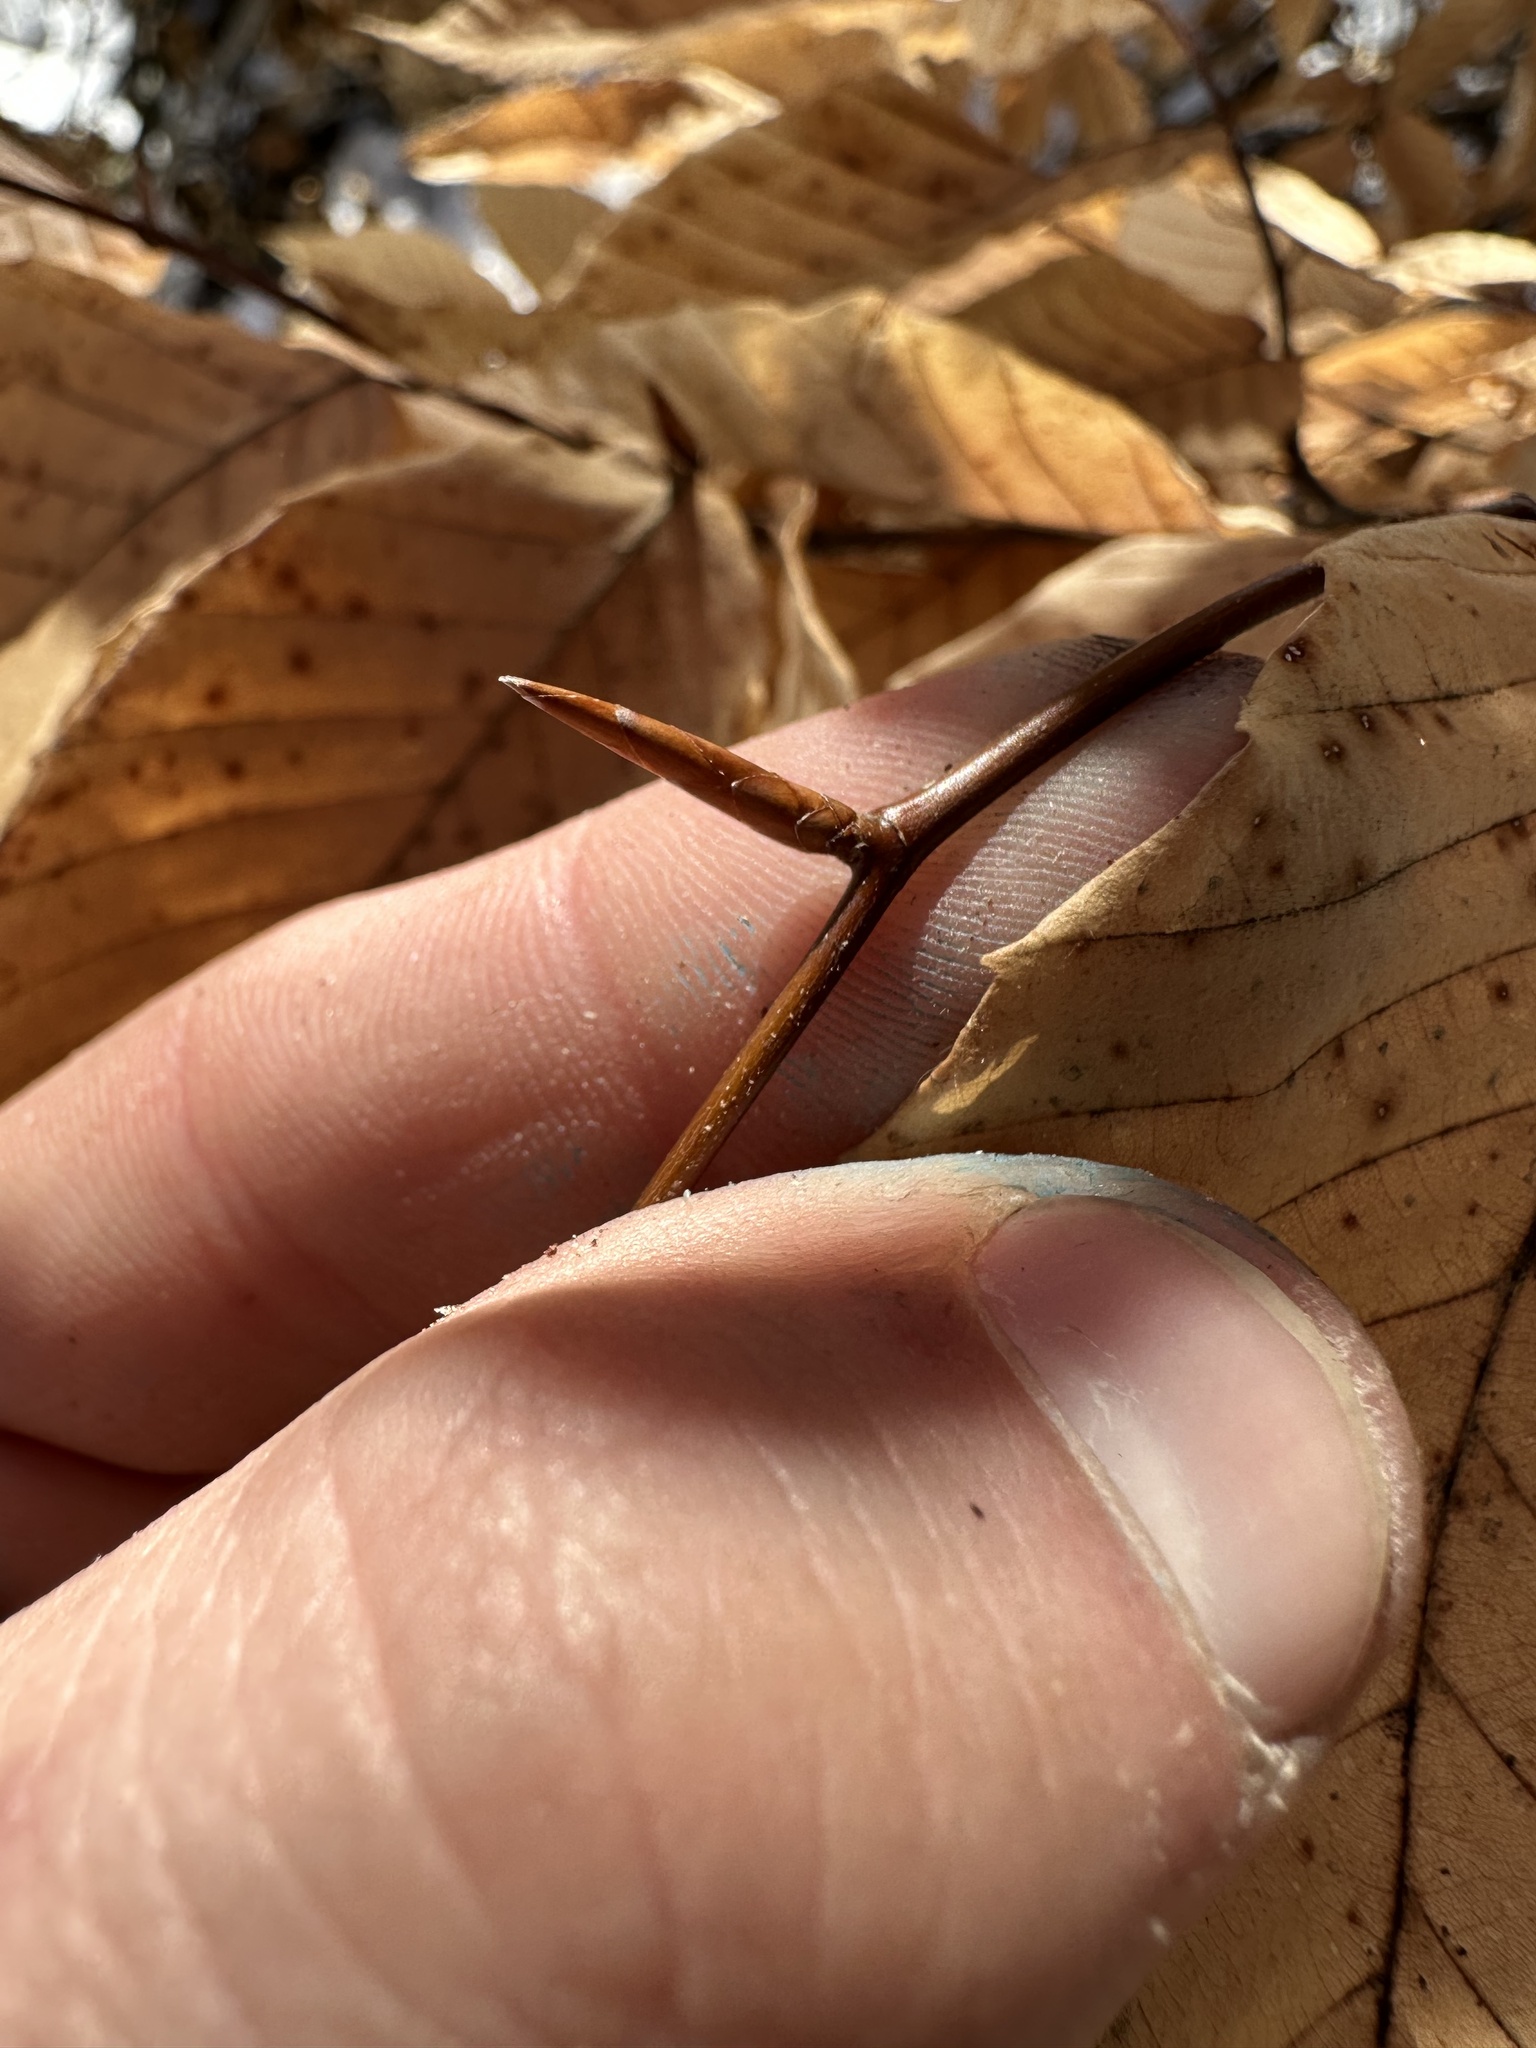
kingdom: Plantae
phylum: Tracheophyta
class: Magnoliopsida
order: Fagales
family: Fagaceae
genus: Fagus
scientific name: Fagus grandifolia
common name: American beech
